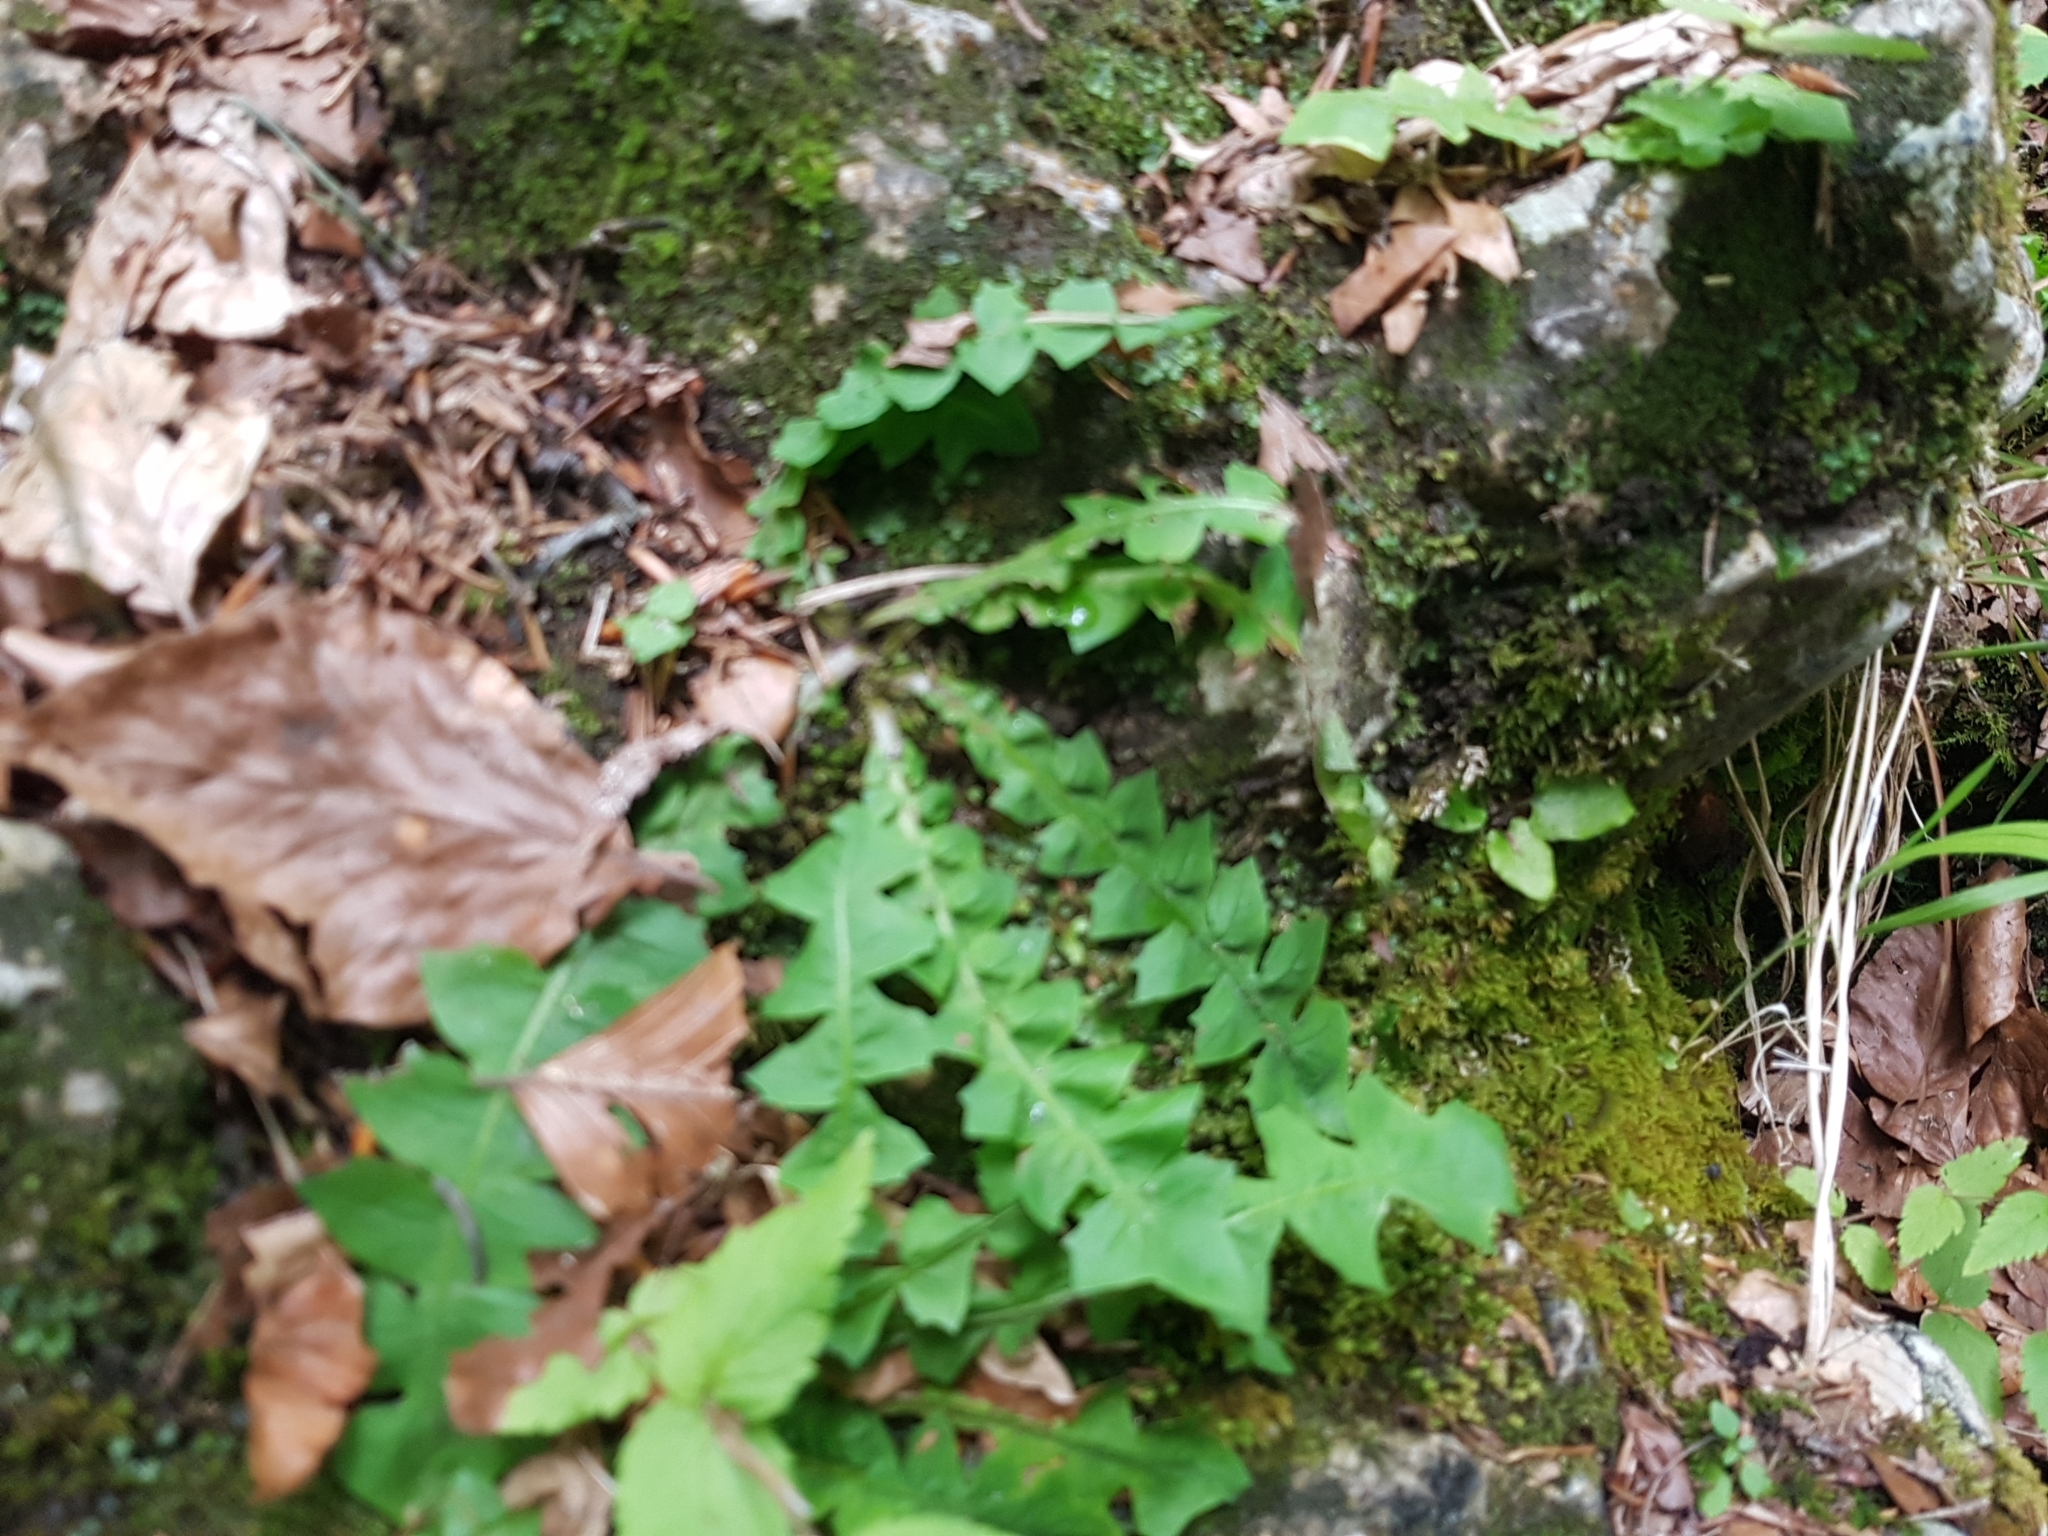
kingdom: Plantae
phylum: Tracheophyta
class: Magnoliopsida
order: Asterales
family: Asteraceae
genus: Aposeris
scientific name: Aposeris foetida
